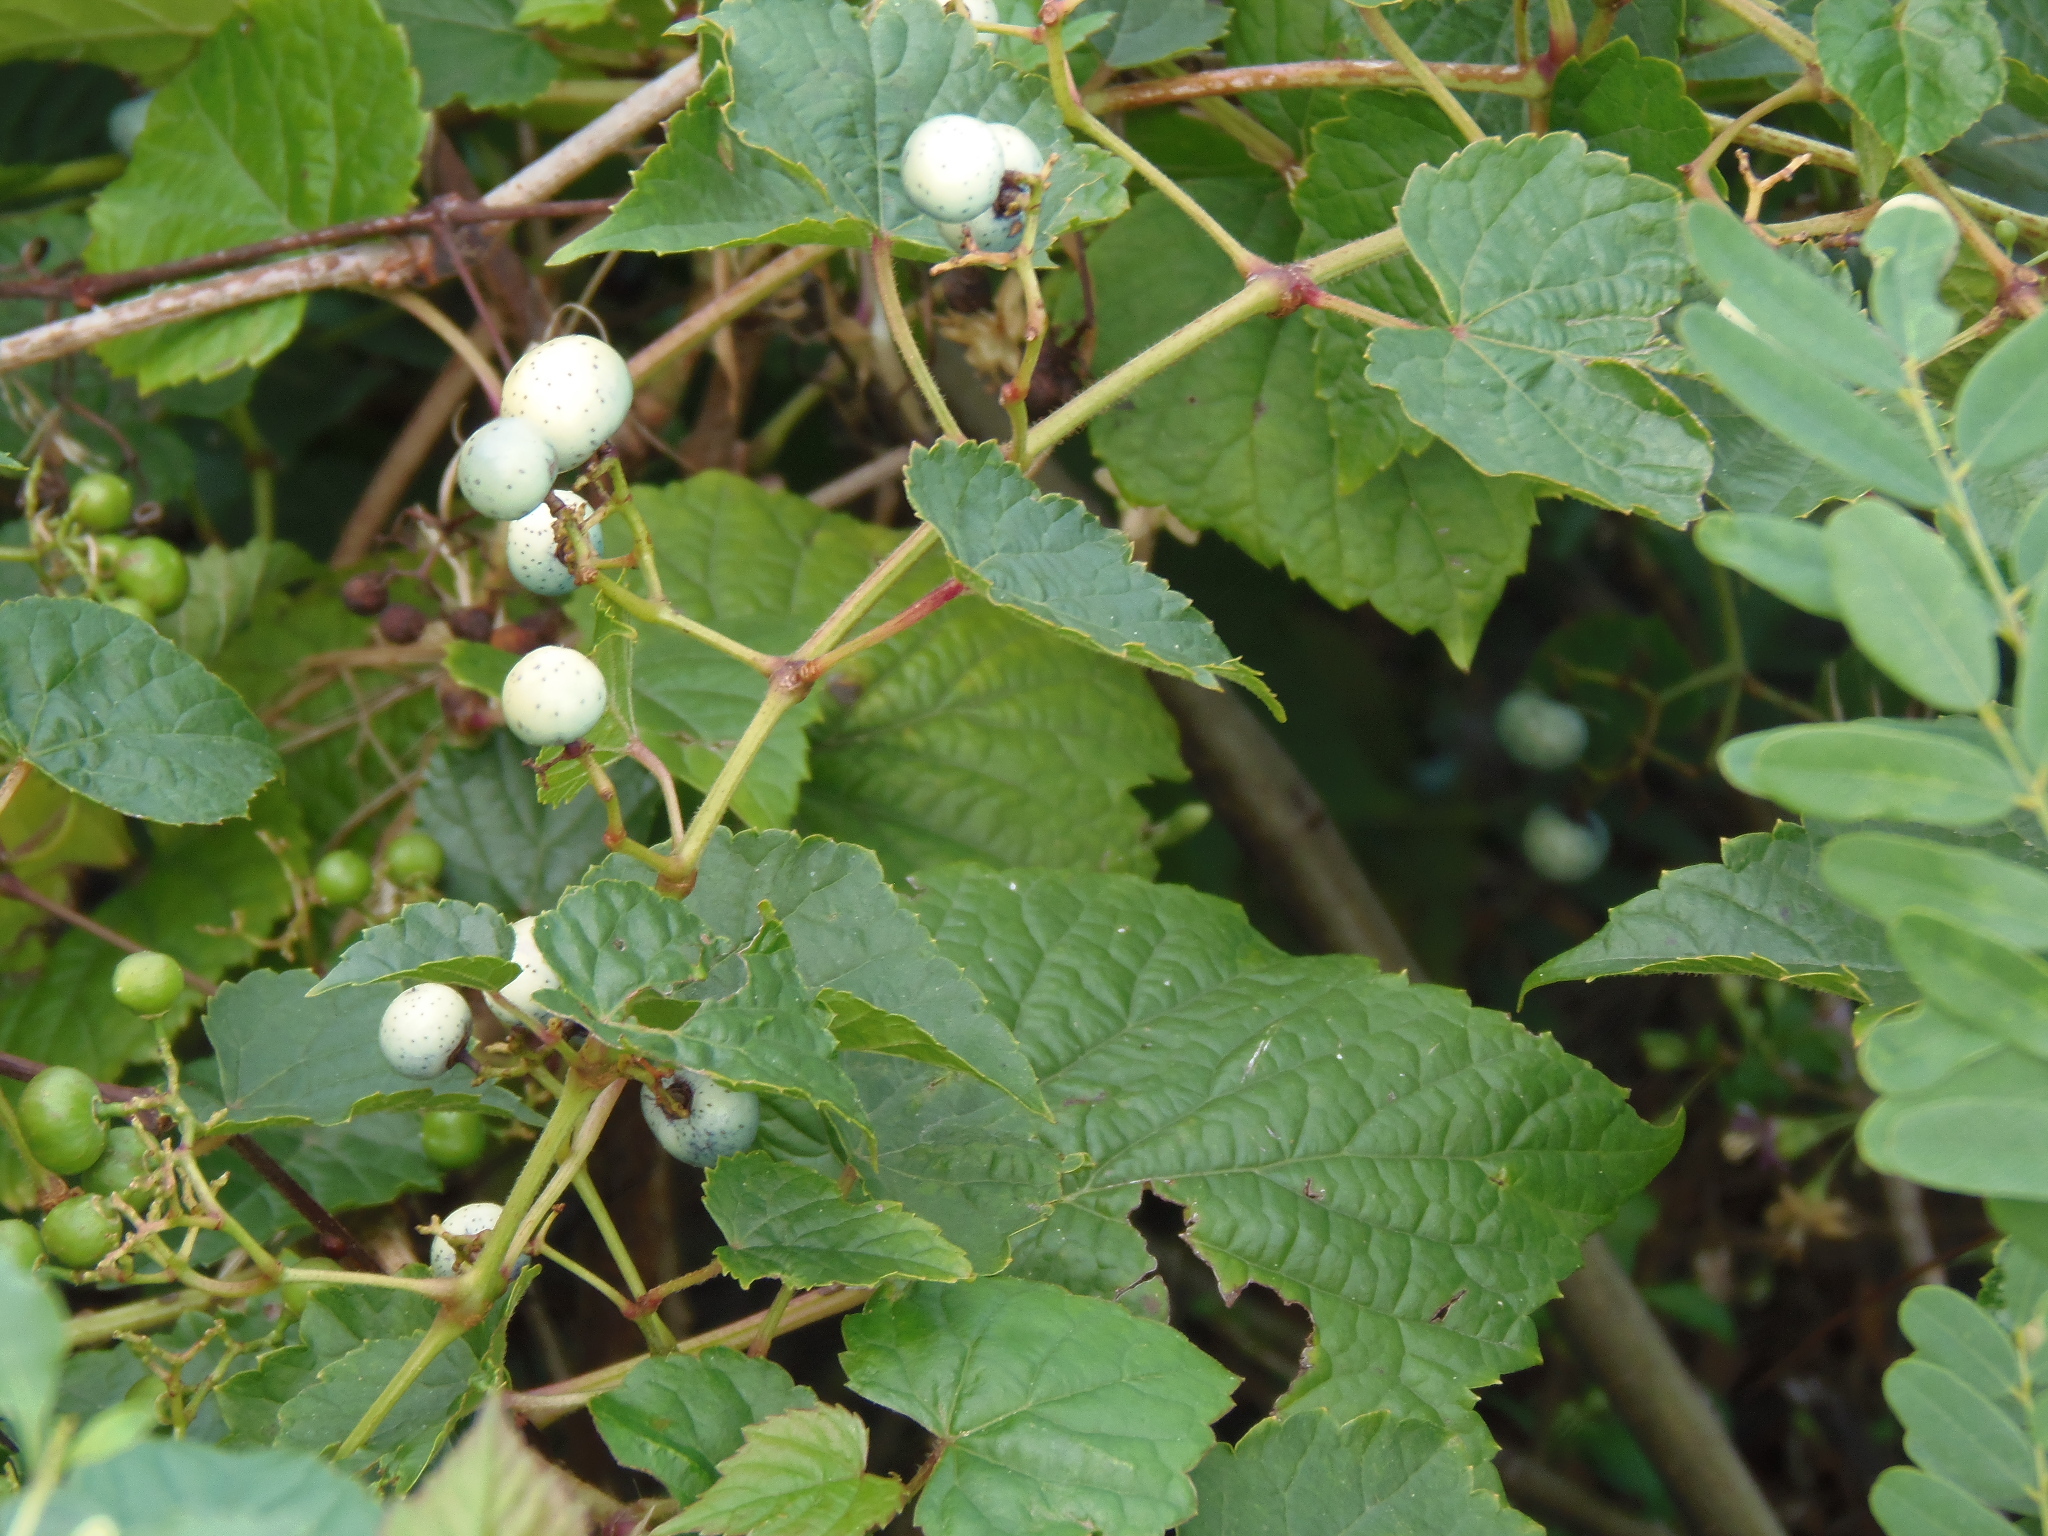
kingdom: Plantae
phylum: Tracheophyta
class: Magnoliopsida
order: Vitales
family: Vitaceae
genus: Ampelopsis
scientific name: Ampelopsis glandulosa
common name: Amur peppervine
